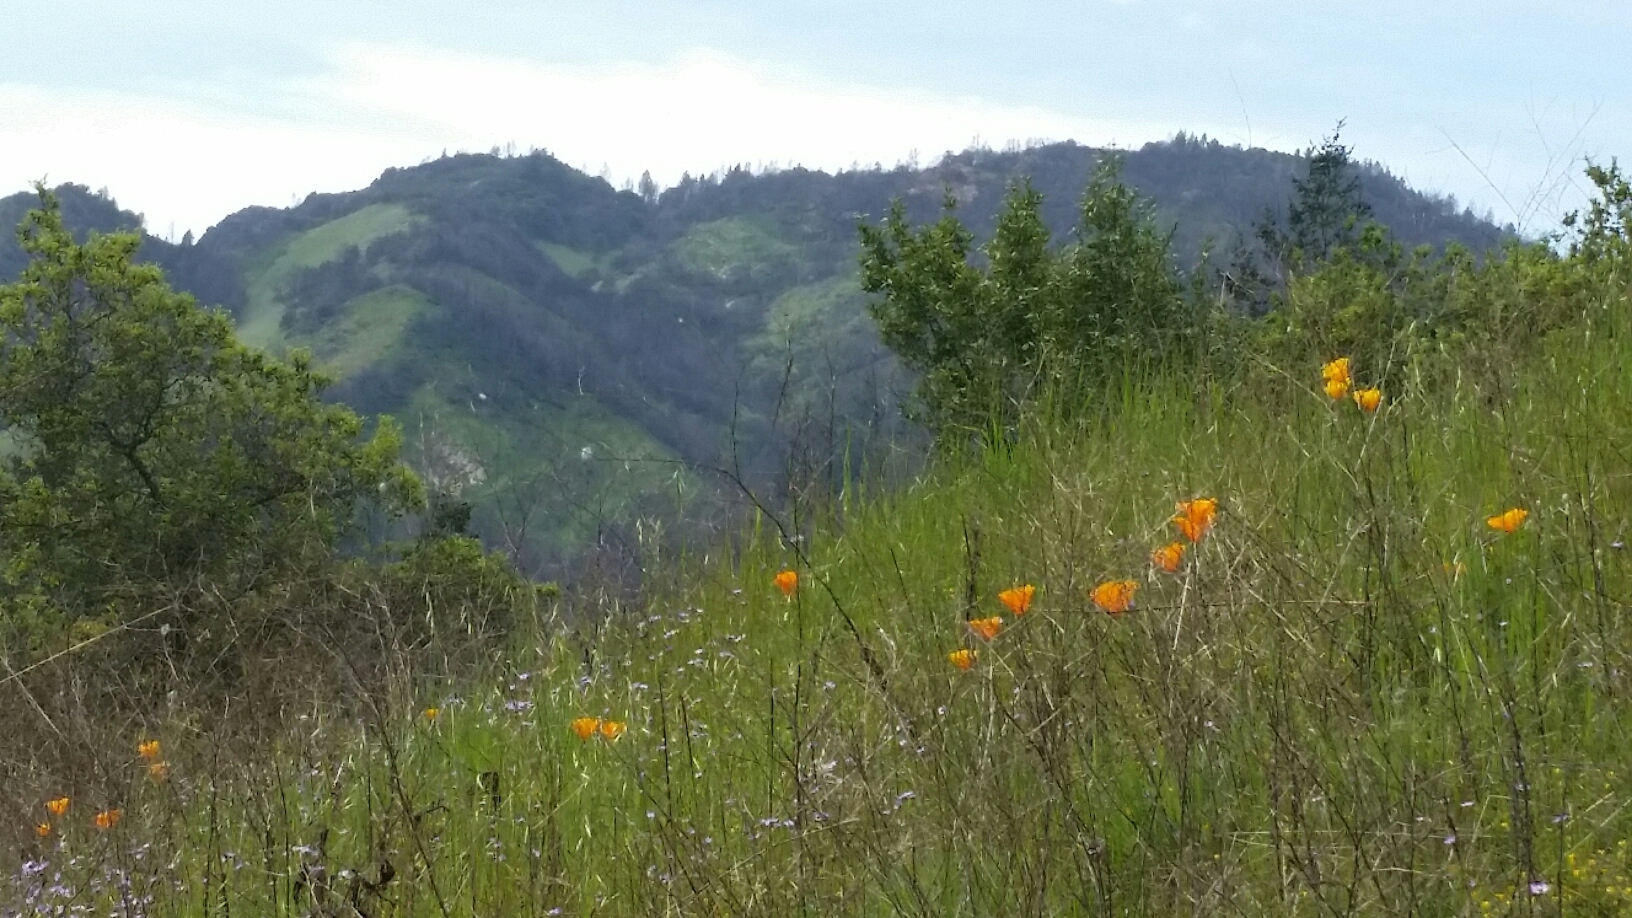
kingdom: Plantae
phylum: Tracheophyta
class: Magnoliopsida
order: Ranunculales
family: Papaveraceae
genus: Eschscholzia
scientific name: Eschscholzia californica
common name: California poppy
